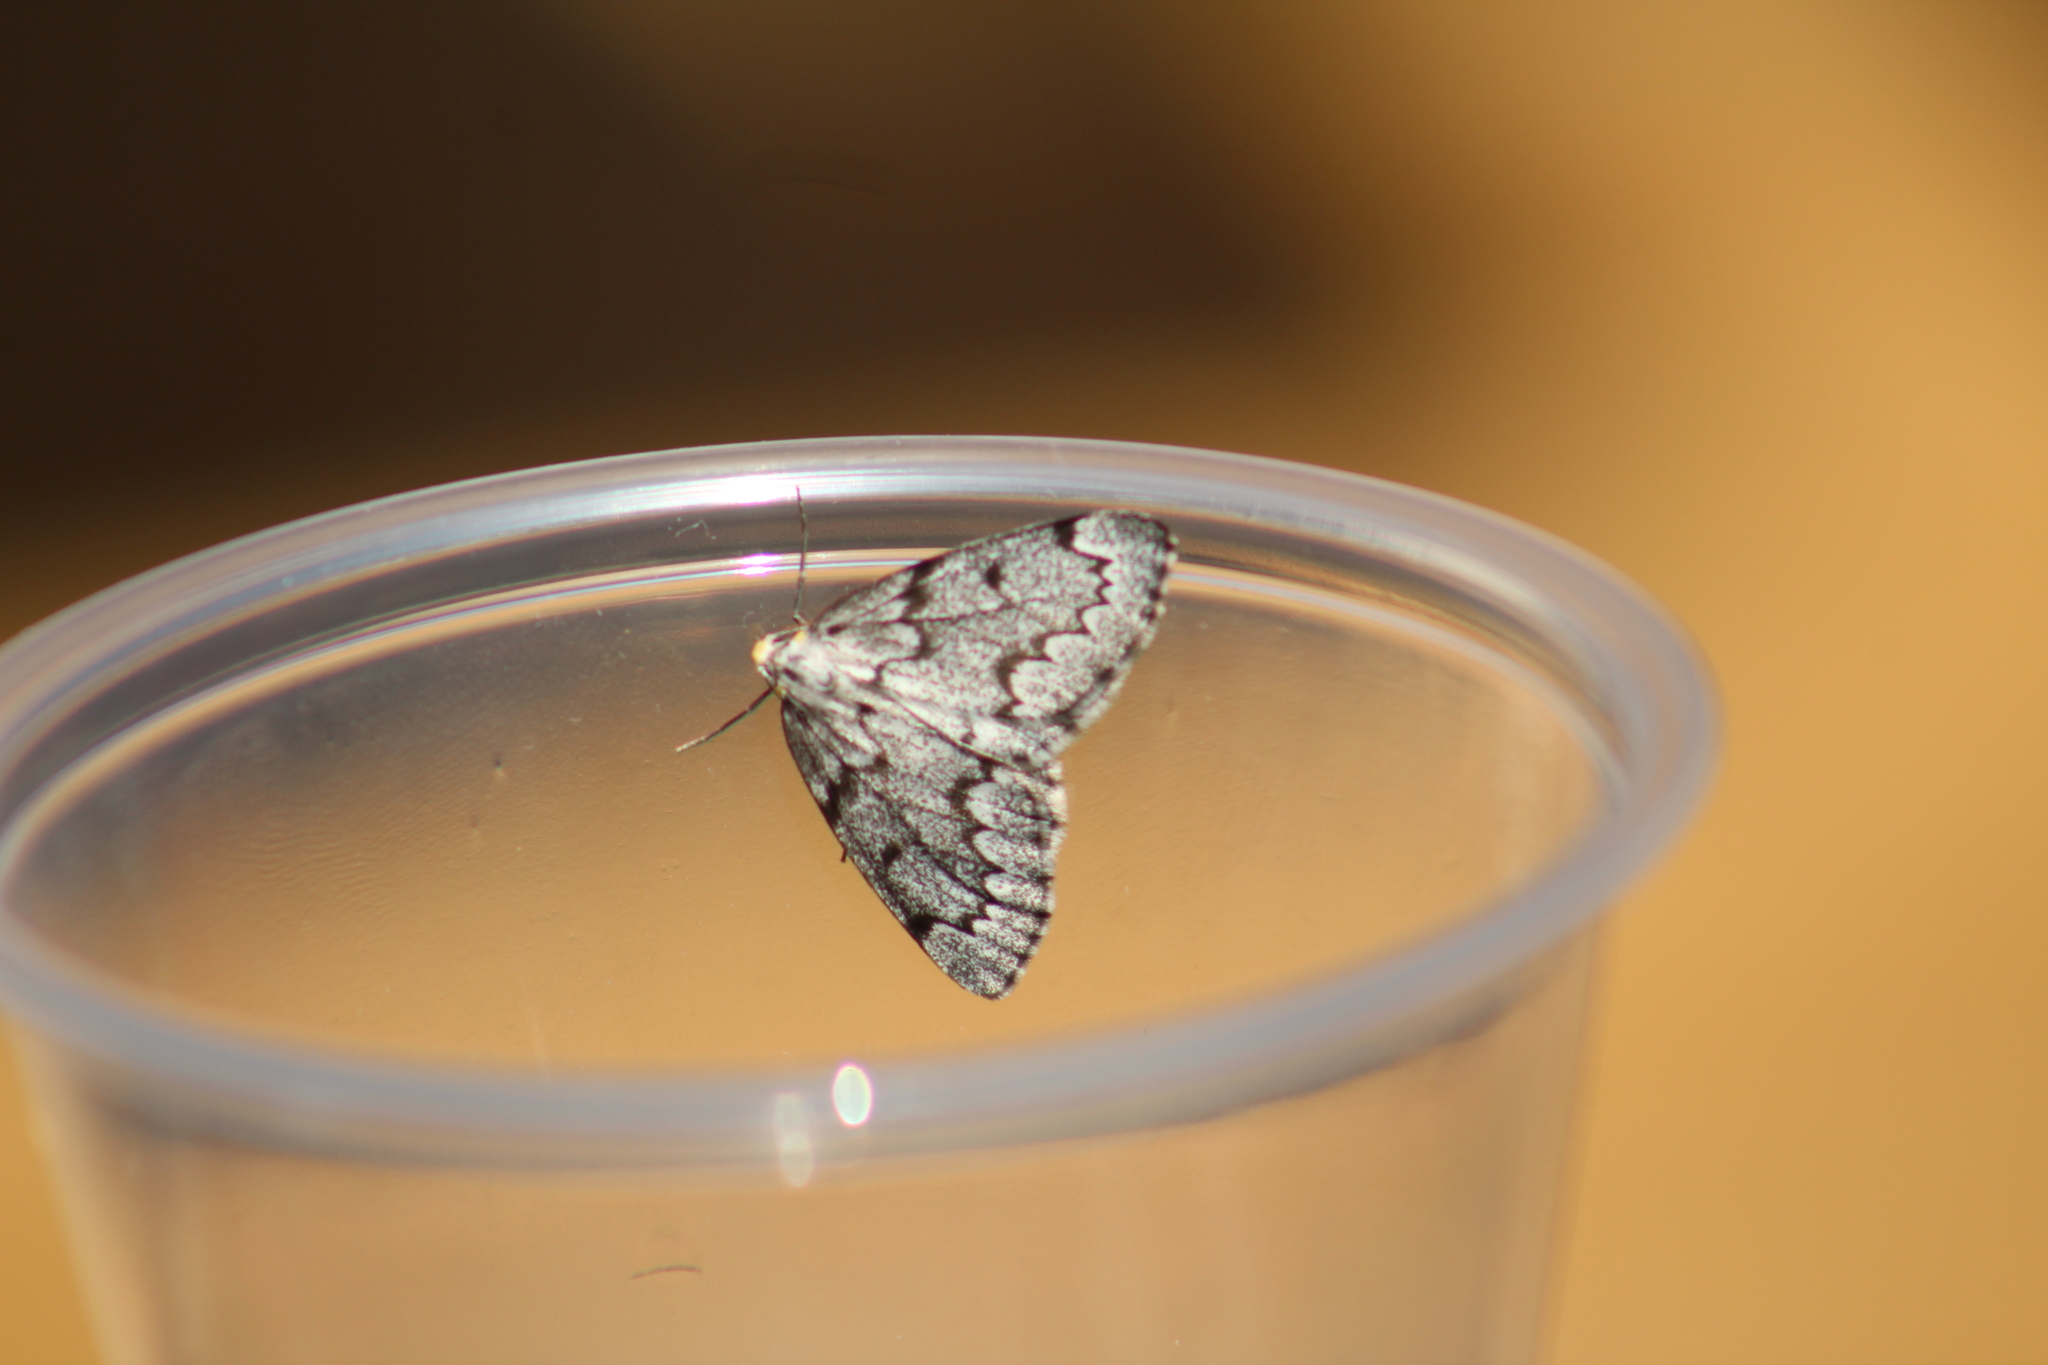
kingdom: Animalia
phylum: Arthropoda
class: Insecta
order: Lepidoptera
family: Geometridae
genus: Nepytia
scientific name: Nepytia canosaria
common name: False hemlock looper
